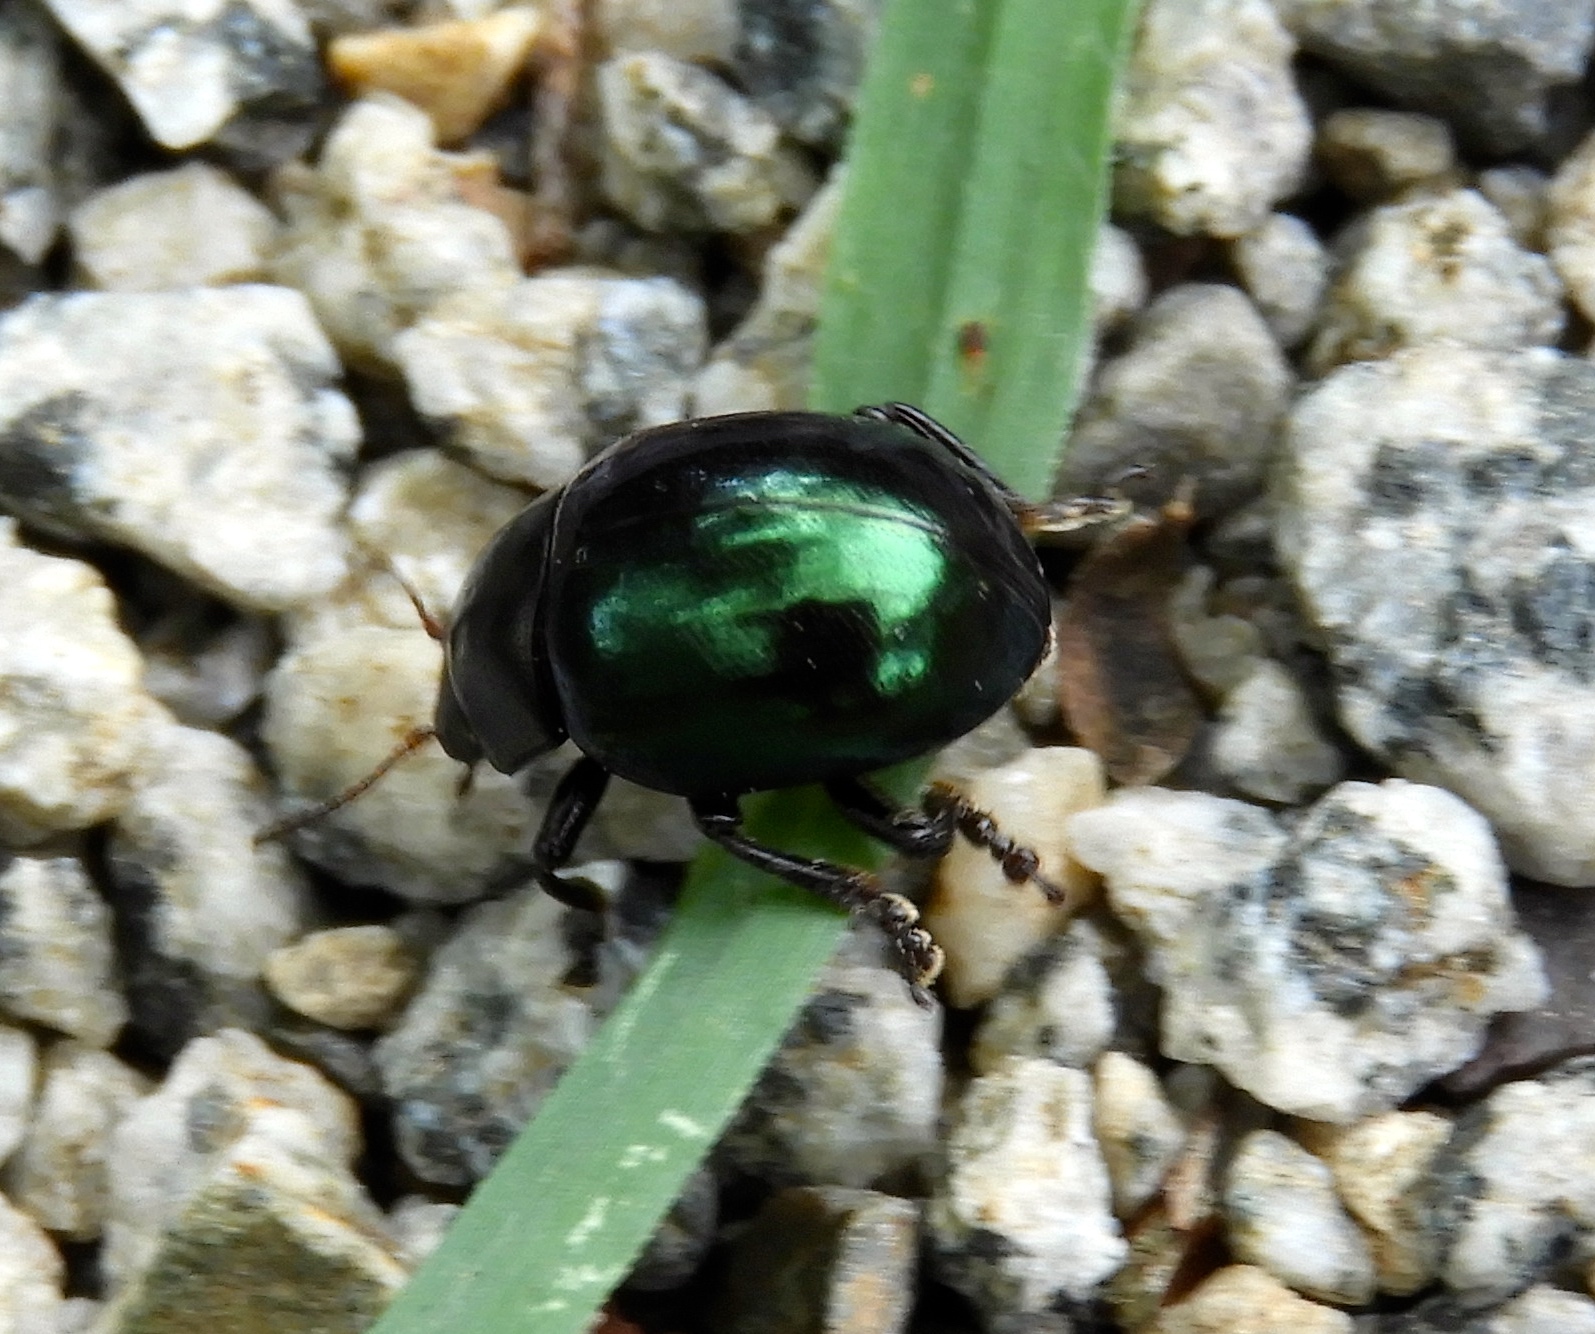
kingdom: Animalia
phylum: Arthropoda
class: Insecta
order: Coleoptera
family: Chrysomelidae
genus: Leptinotarsa
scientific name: Leptinotarsa haldemani
